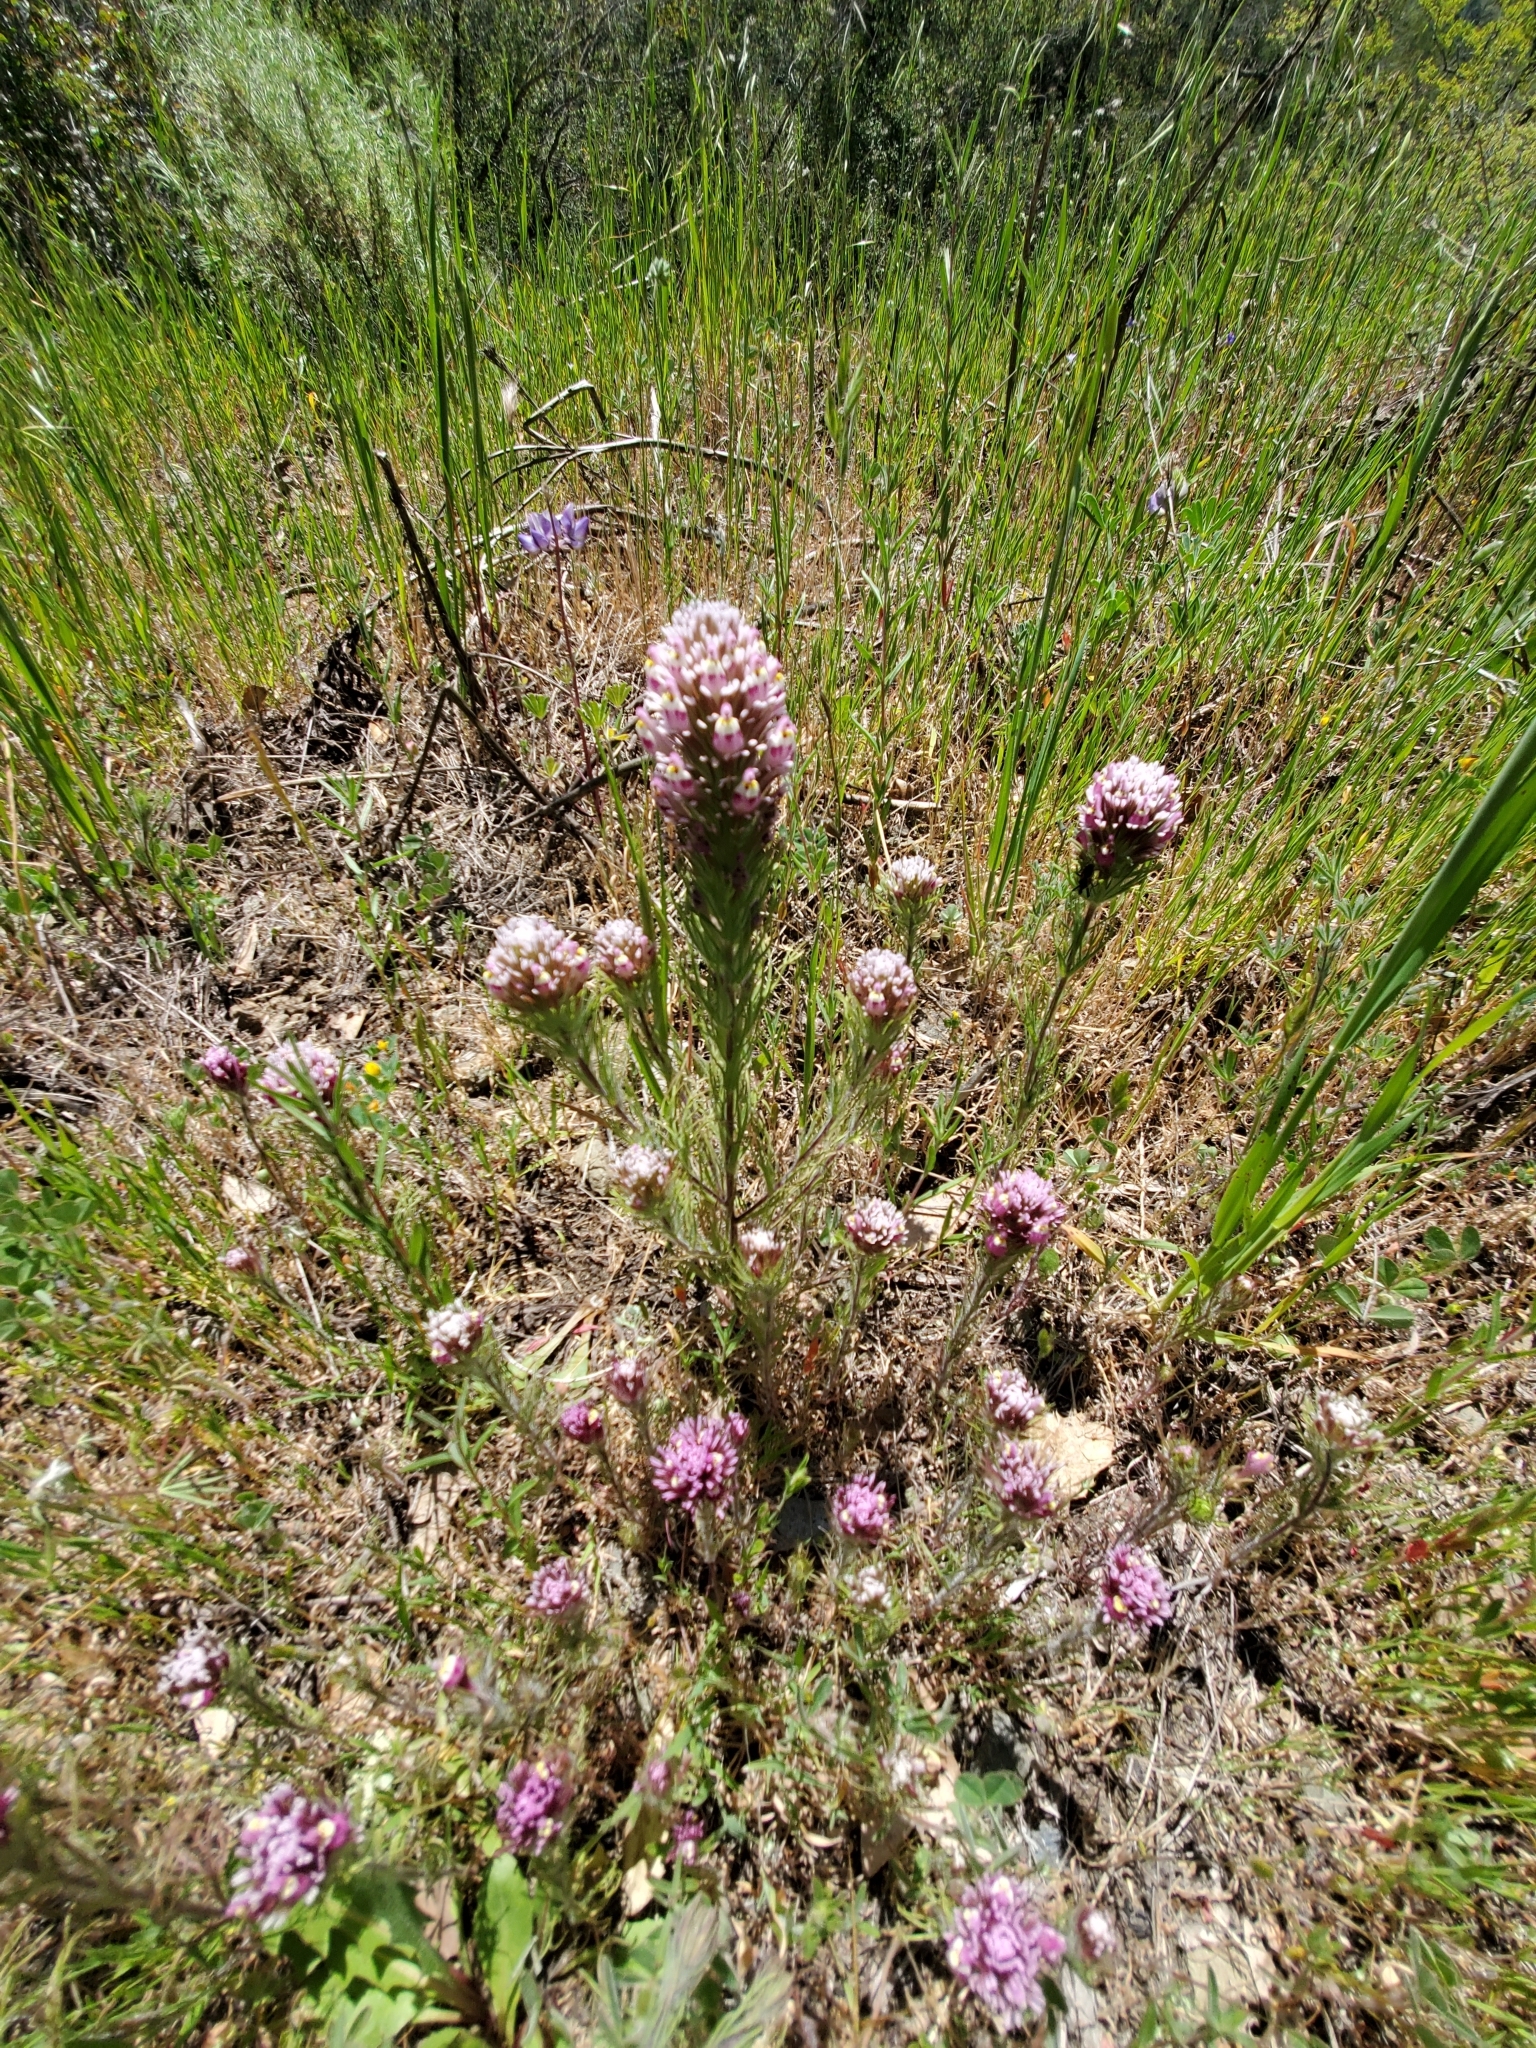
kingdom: Plantae
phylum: Tracheophyta
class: Magnoliopsida
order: Lamiales
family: Orobanchaceae
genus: Castilleja
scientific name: Castilleja exserta
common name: Purple owl-clover
